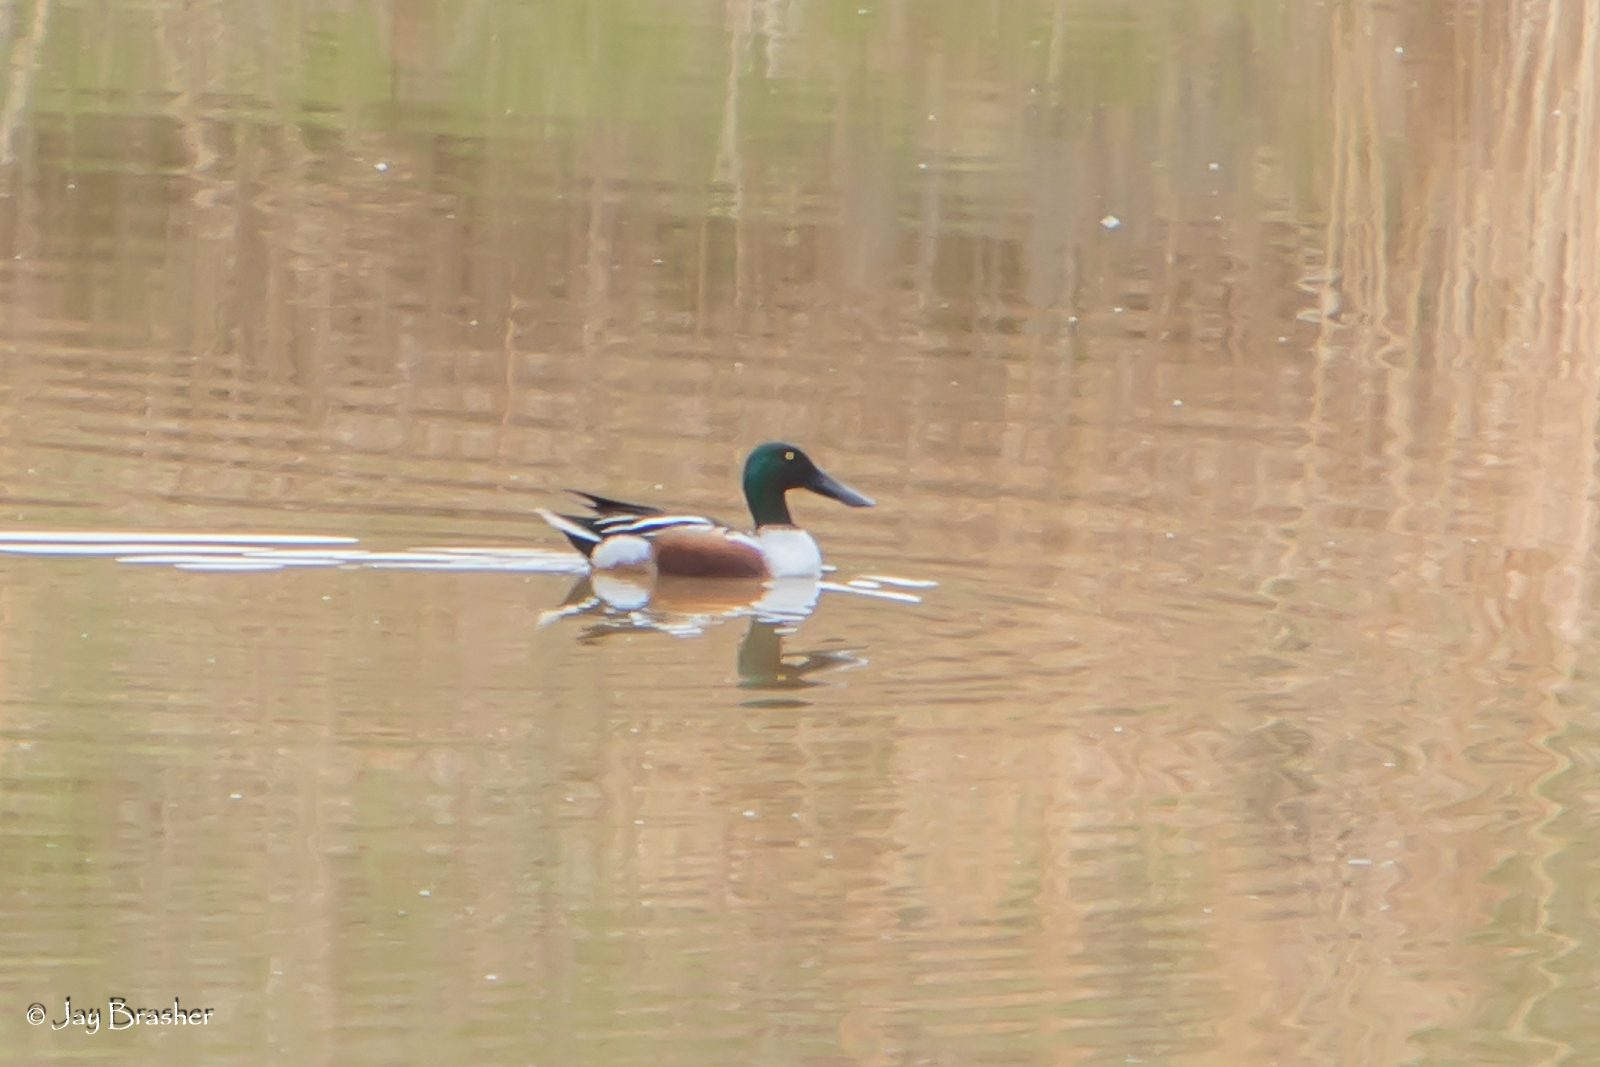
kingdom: Animalia
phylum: Chordata
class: Aves
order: Anseriformes
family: Anatidae
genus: Spatula
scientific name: Spatula clypeata
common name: Northern shoveler
